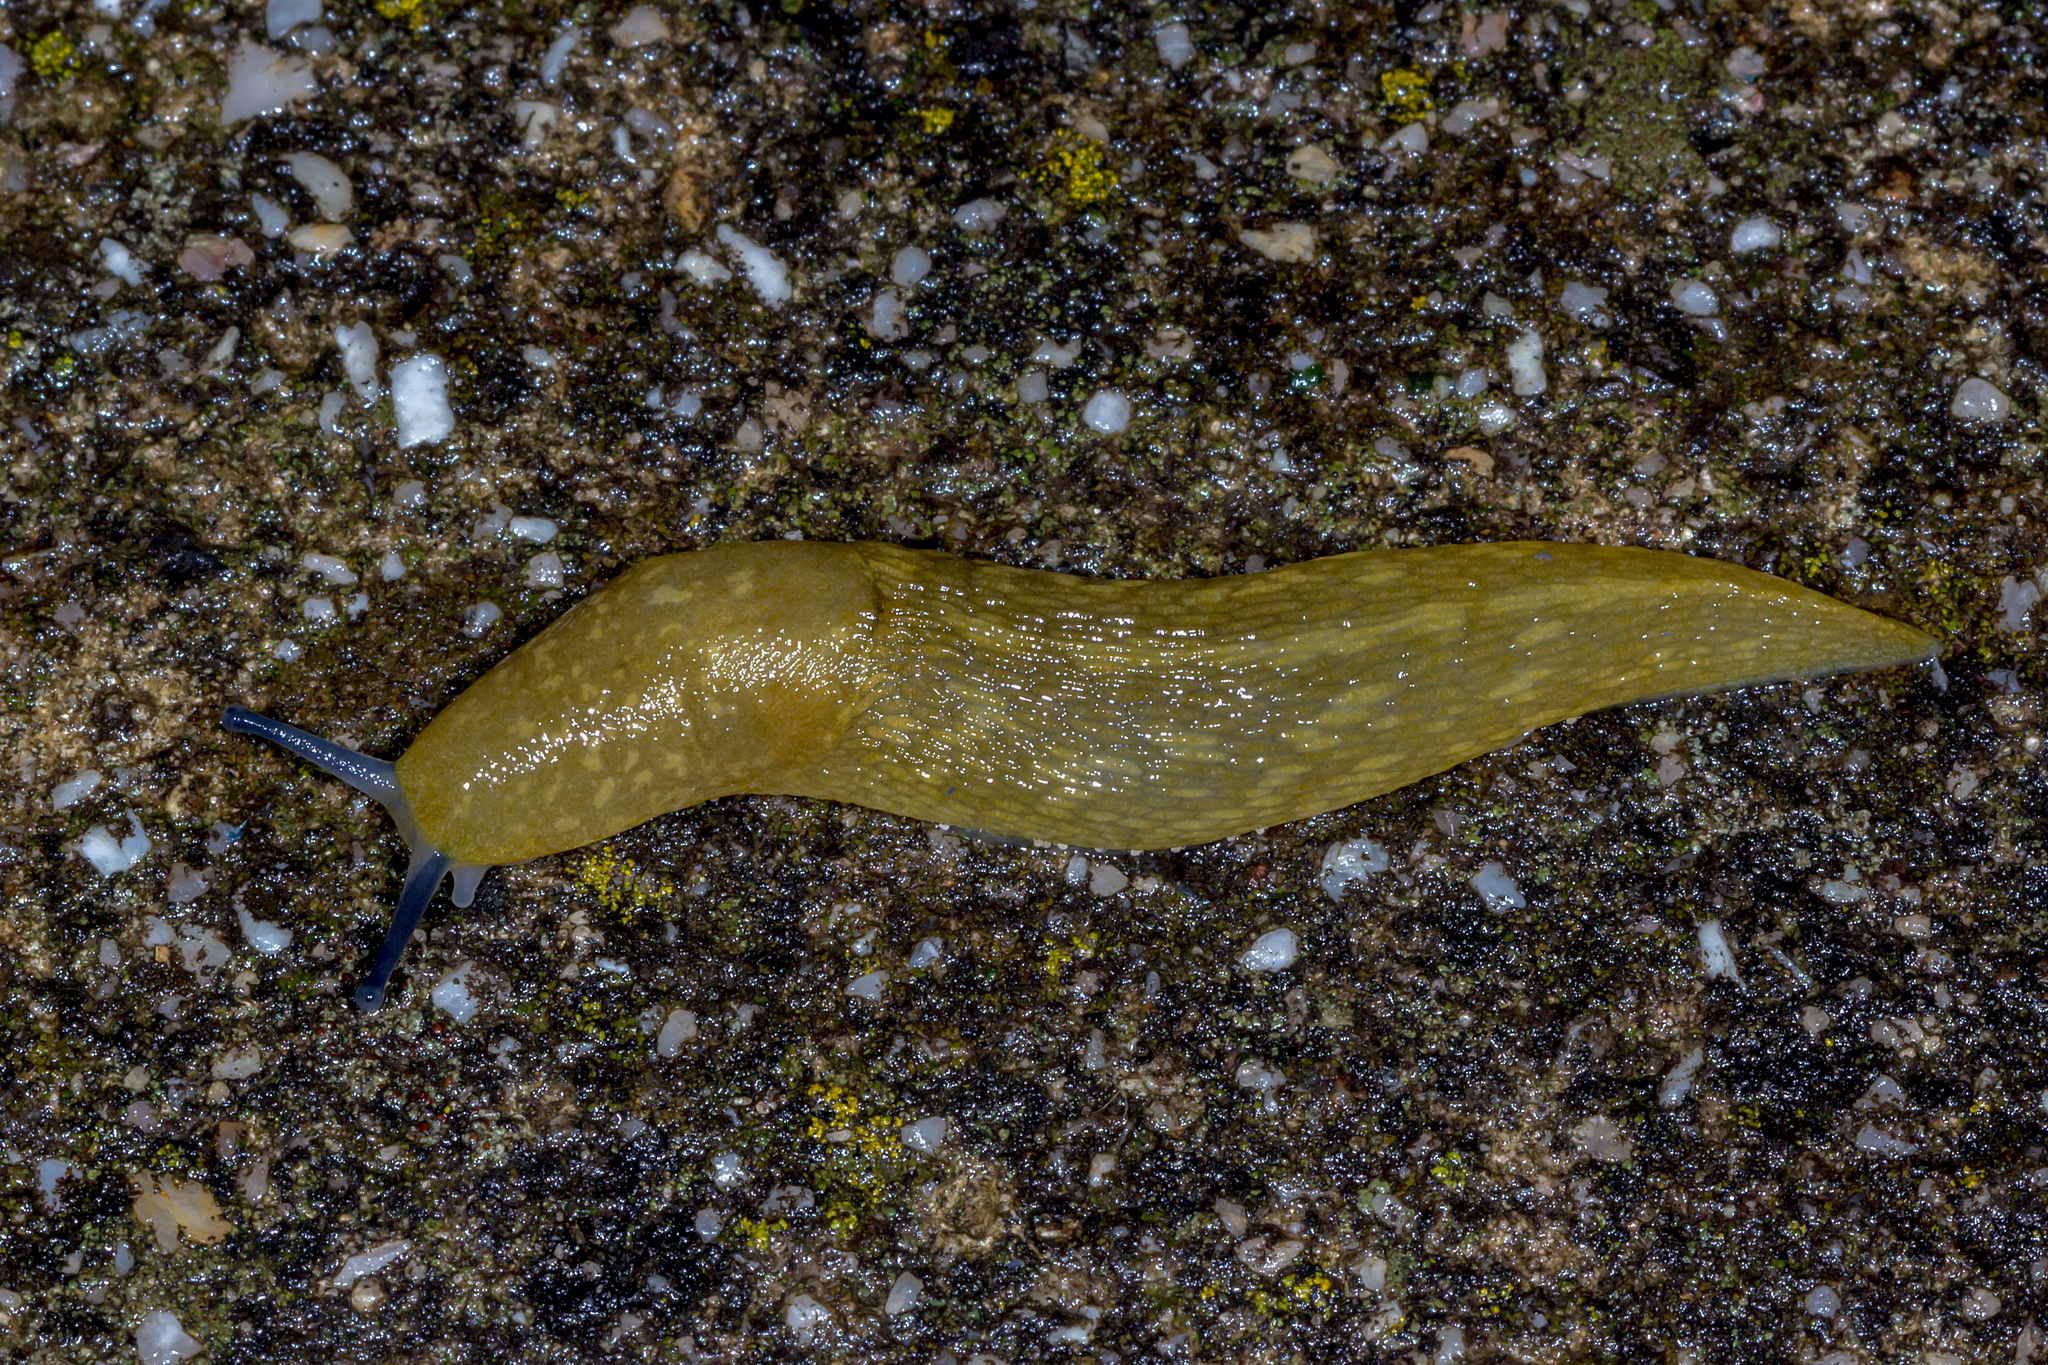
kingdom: Animalia
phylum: Mollusca
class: Gastropoda
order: Stylommatophora
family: Limacidae
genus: Limacus
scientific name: Limacus flavus
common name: Yellow gardenslug
